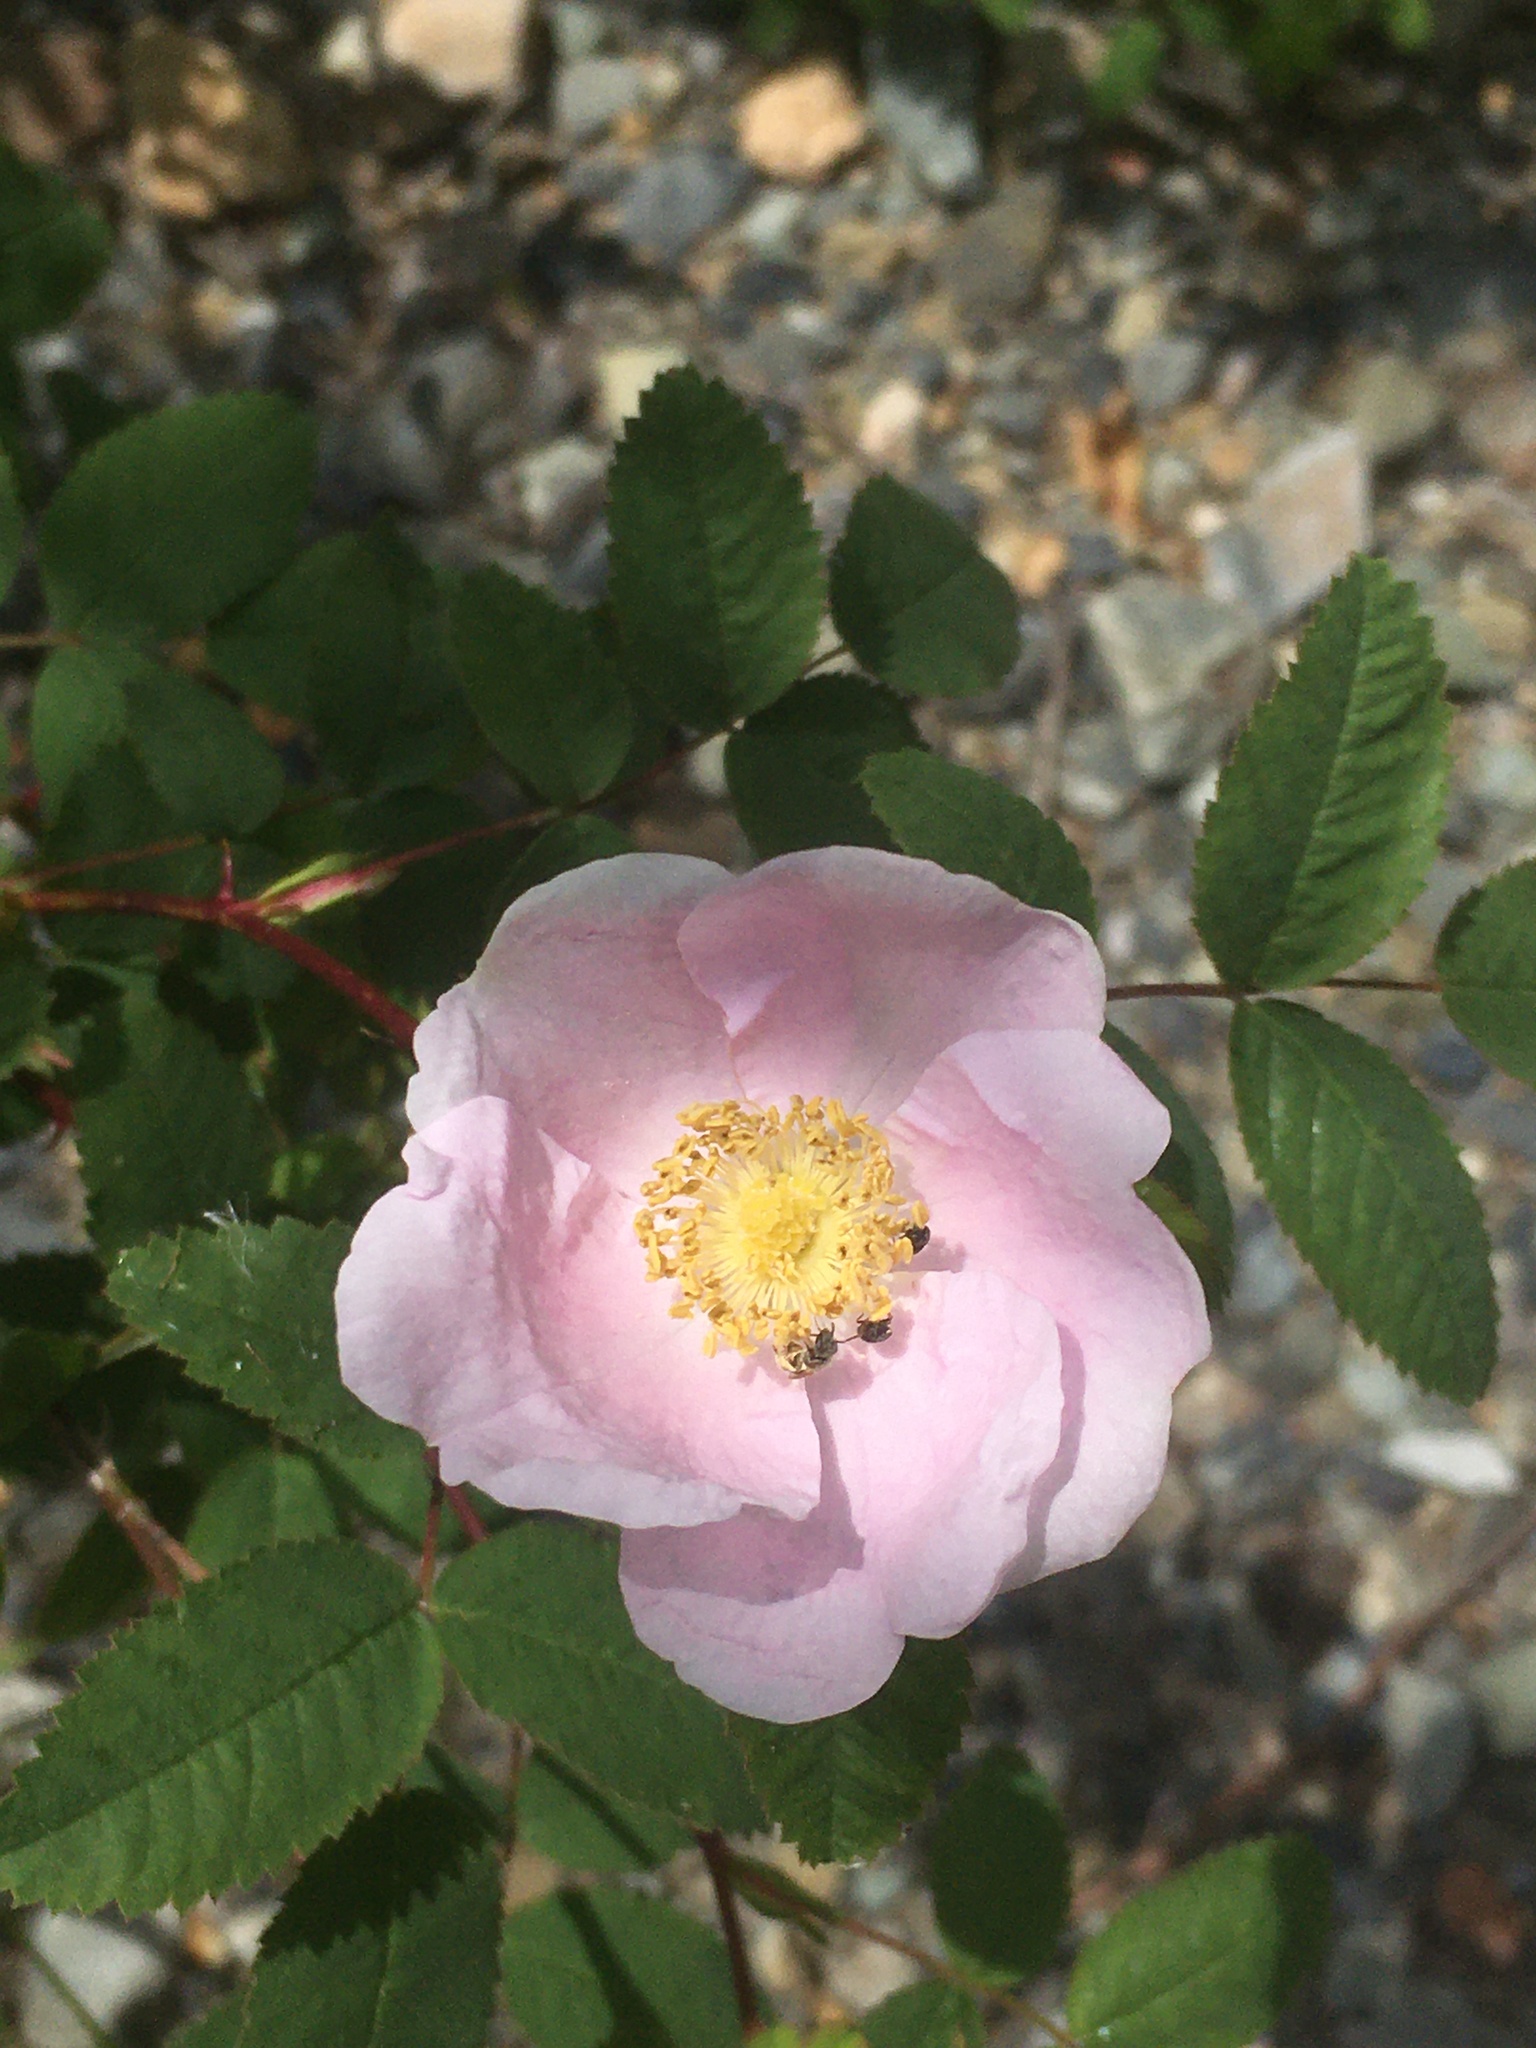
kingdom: Plantae
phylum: Tracheophyta
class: Magnoliopsida
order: Rosales
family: Rosaceae
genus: Rosa
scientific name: Rosa californica
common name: California rose
